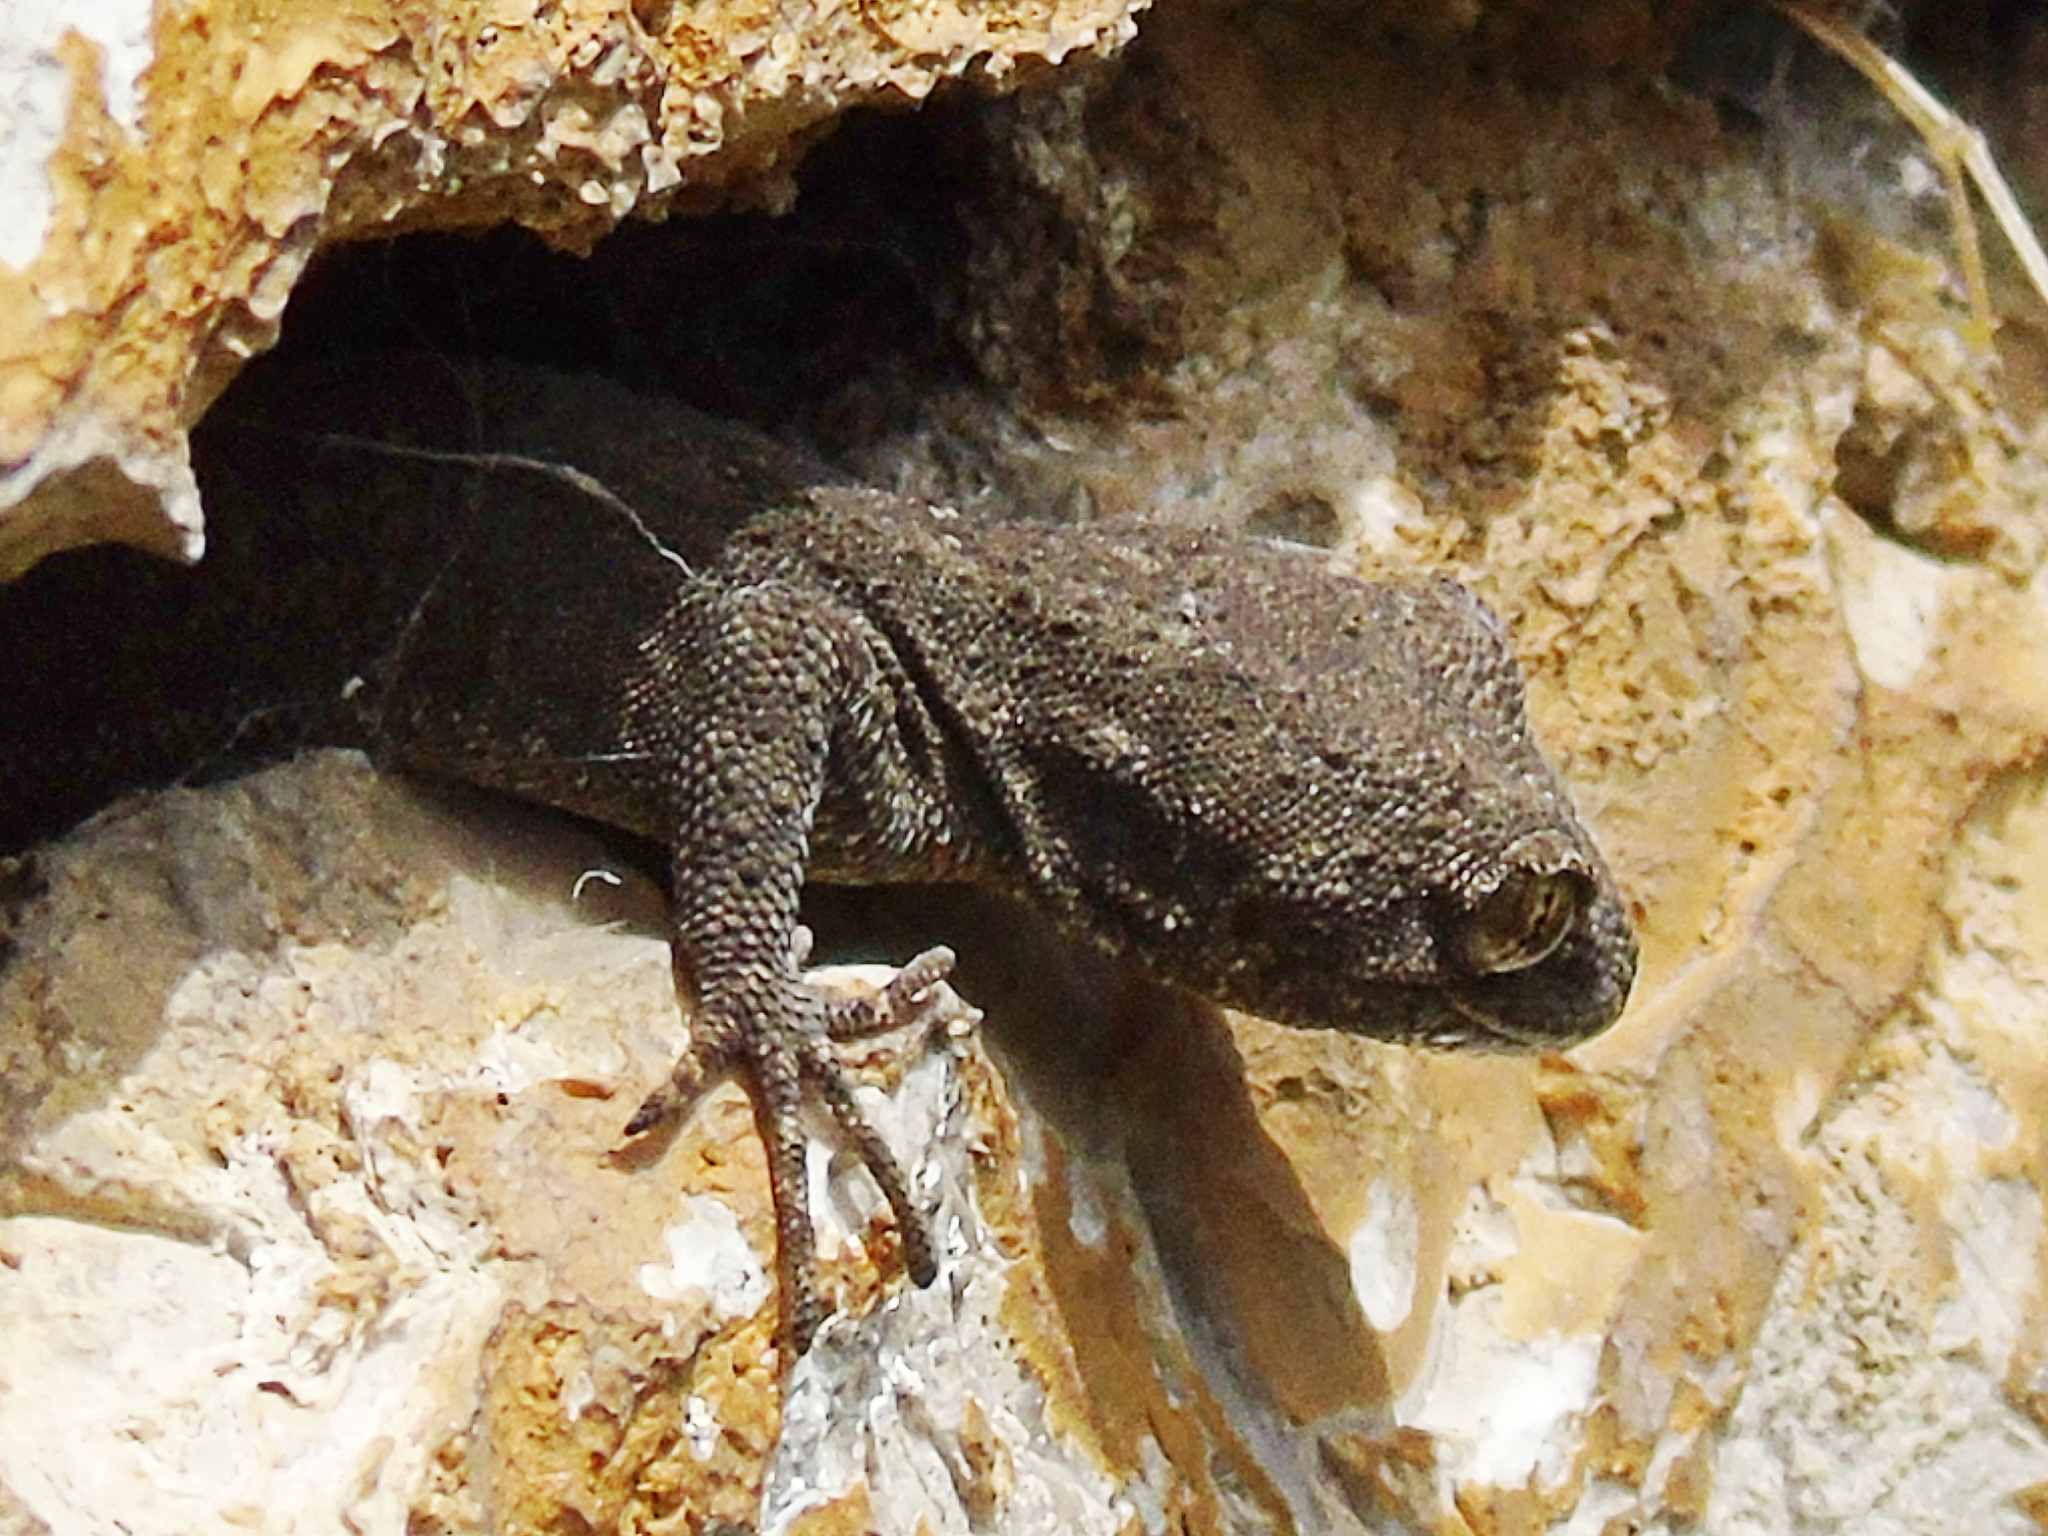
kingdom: Animalia
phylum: Chordata
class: Squamata
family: Gekkonidae
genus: Mediodactylus
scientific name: Mediodactylus kotschyi
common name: Kotschy's gecko
